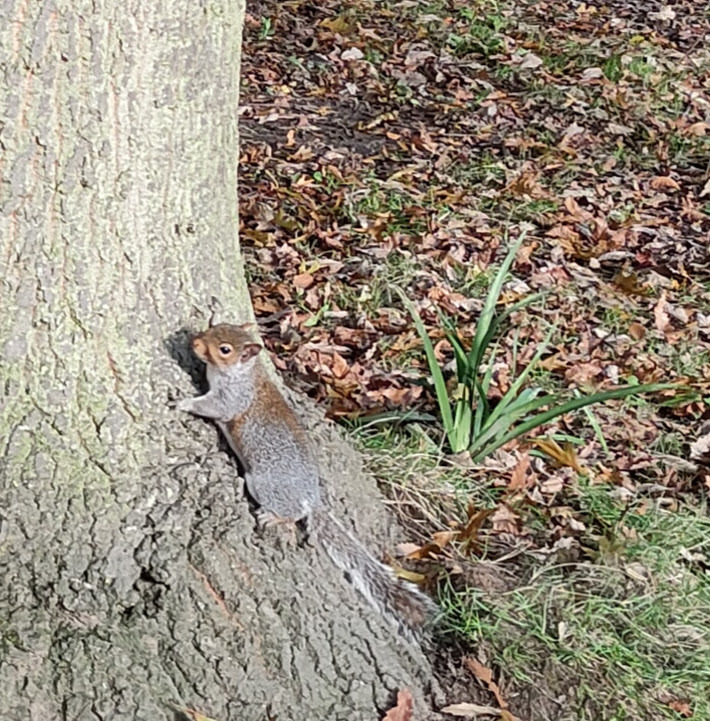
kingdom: Animalia
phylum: Chordata
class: Mammalia
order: Rodentia
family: Sciuridae
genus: Sciurus
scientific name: Sciurus carolinensis
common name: Eastern gray squirrel
